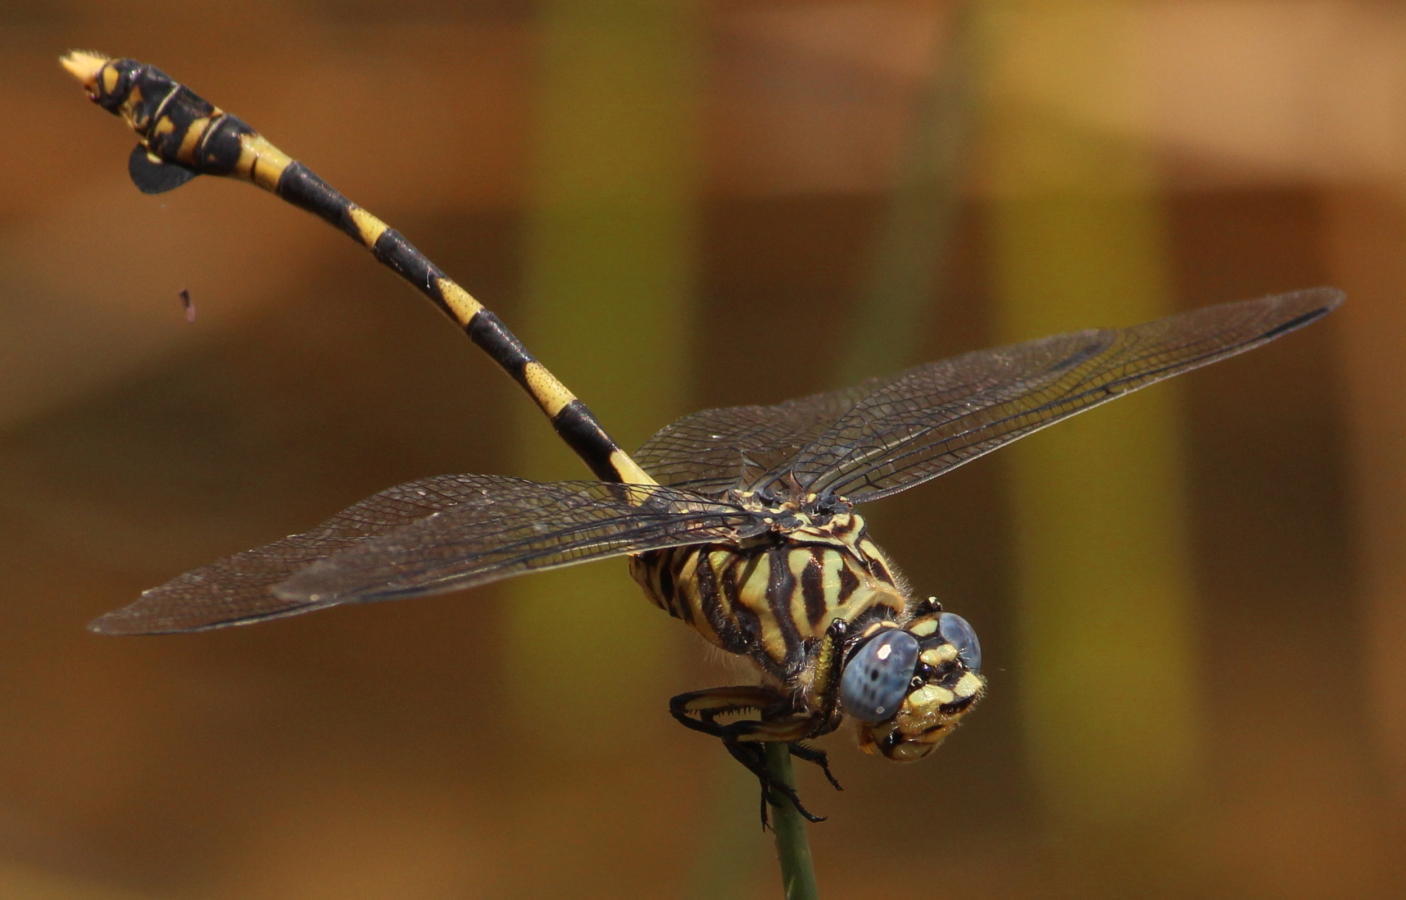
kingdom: Animalia
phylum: Arthropoda
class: Insecta
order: Odonata
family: Gomphidae
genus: Ictinogomphus
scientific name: Ictinogomphus ferox
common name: Common tiger
